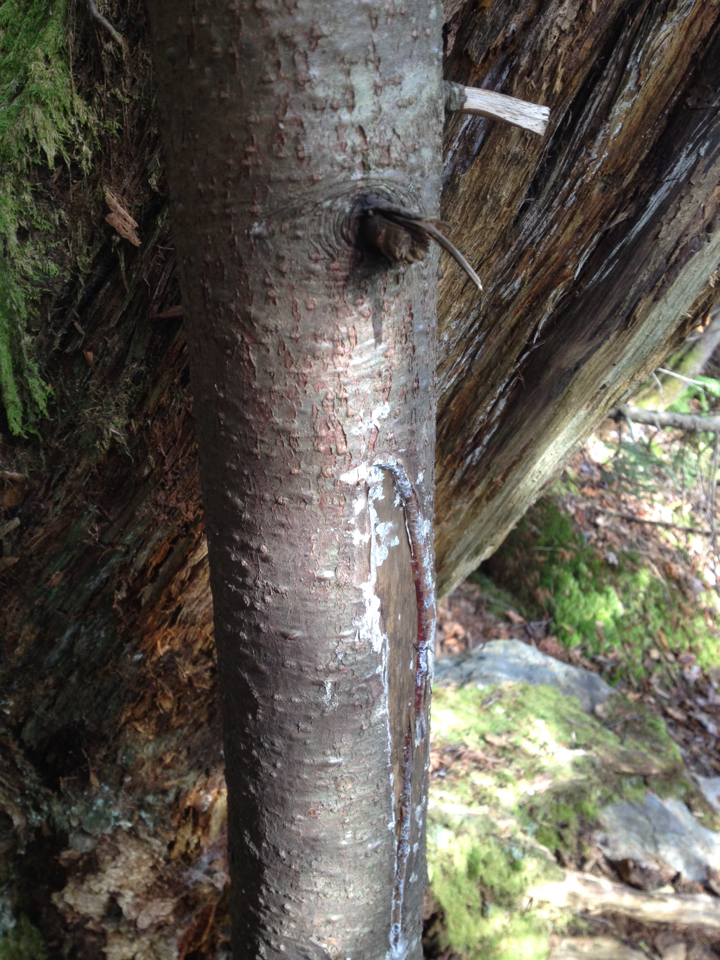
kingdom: Plantae
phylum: Tracheophyta
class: Pinopsida
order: Pinales
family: Pinaceae
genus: Abies
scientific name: Abies balsamea
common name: Balsam fir
